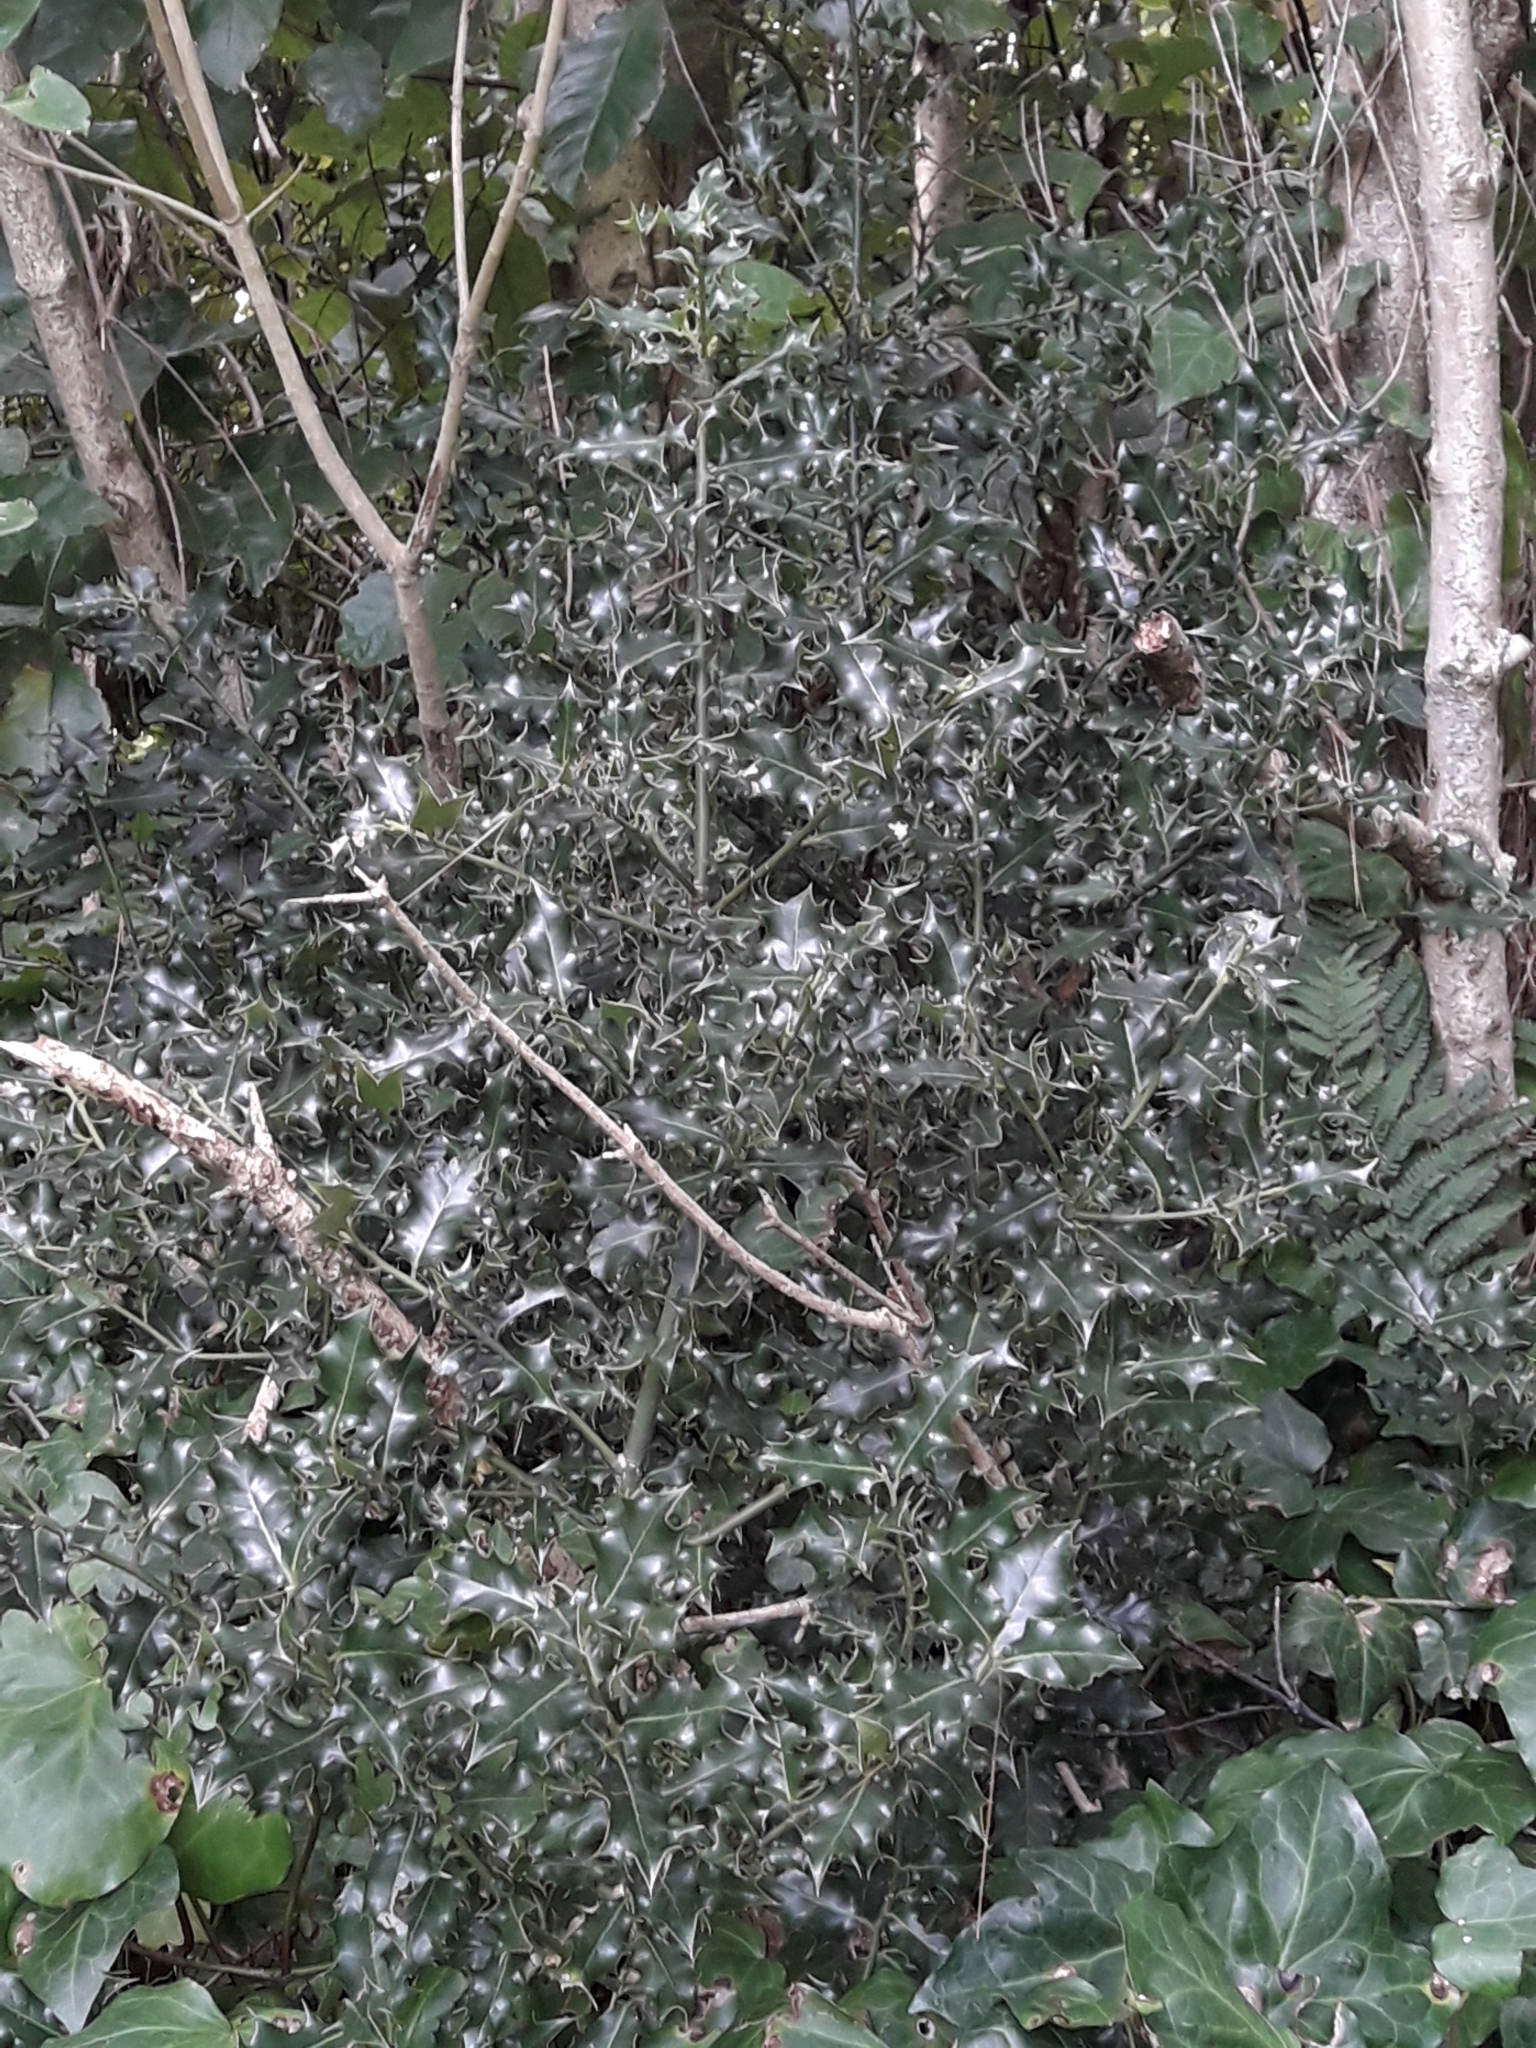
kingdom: Plantae
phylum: Tracheophyta
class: Magnoliopsida
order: Aquifoliales
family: Aquifoliaceae
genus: Ilex
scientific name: Ilex aquifolium
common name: English holly
